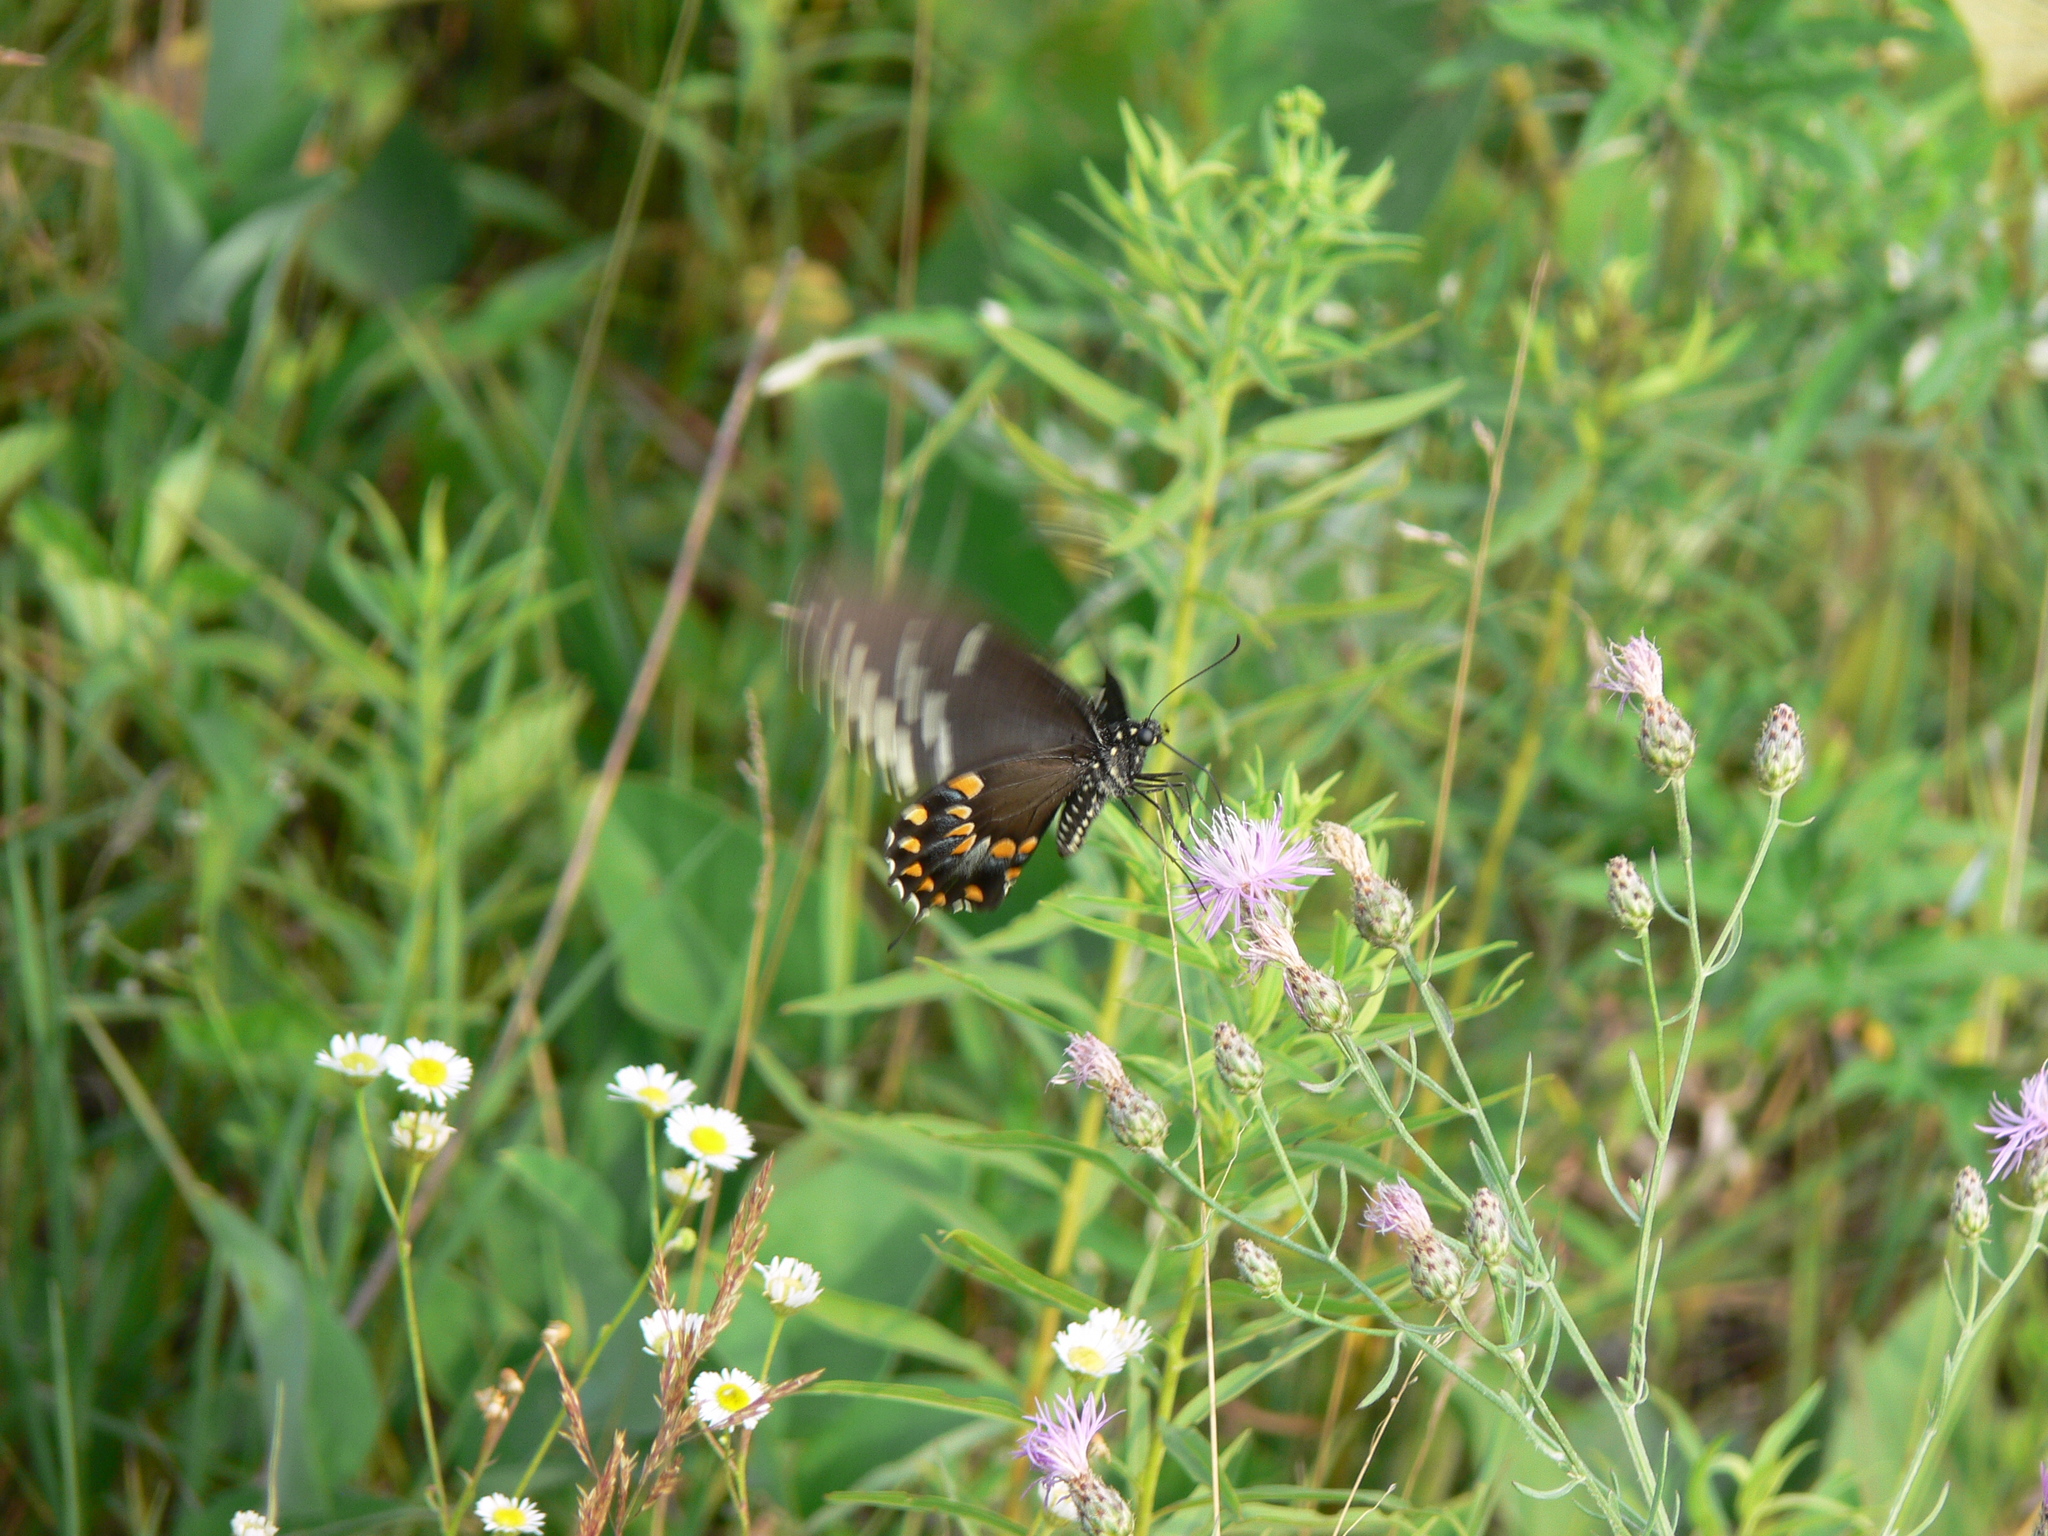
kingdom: Animalia
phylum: Arthropoda
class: Insecta
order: Lepidoptera
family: Papilionidae
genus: Papilio
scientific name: Papilio troilus
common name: Spicebush swallowtail
